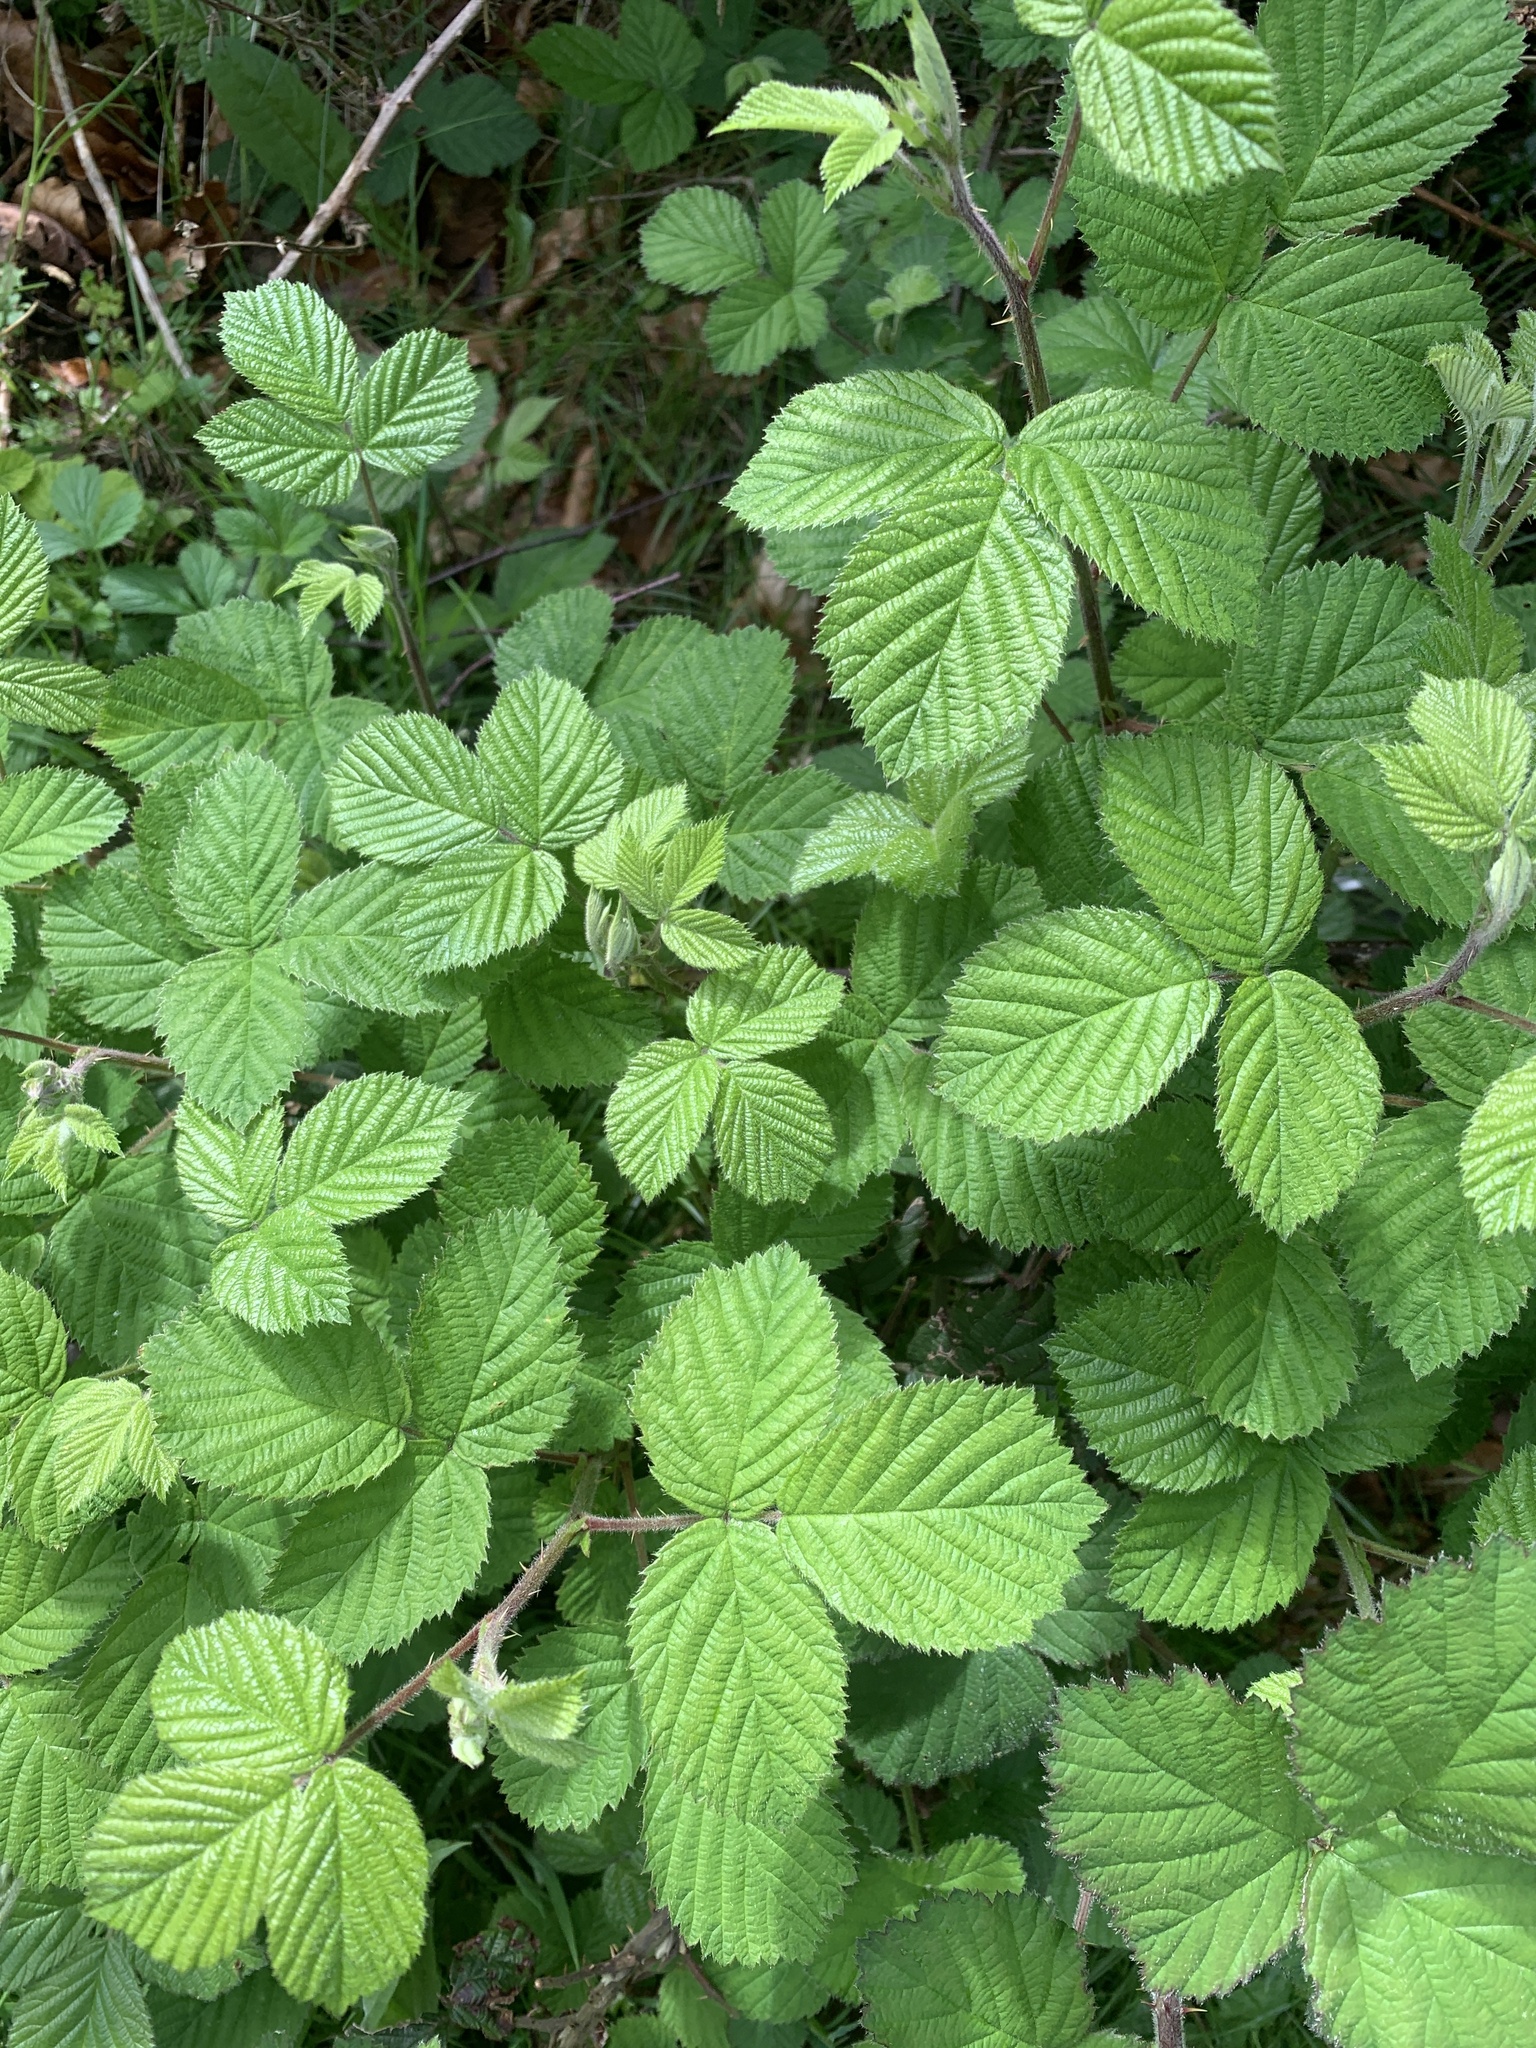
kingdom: Plantae
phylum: Tracheophyta
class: Magnoliopsida
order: Rosales
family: Rosaceae
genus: Rubus
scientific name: Rubus fruticosus
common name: Blackberry, bramble
